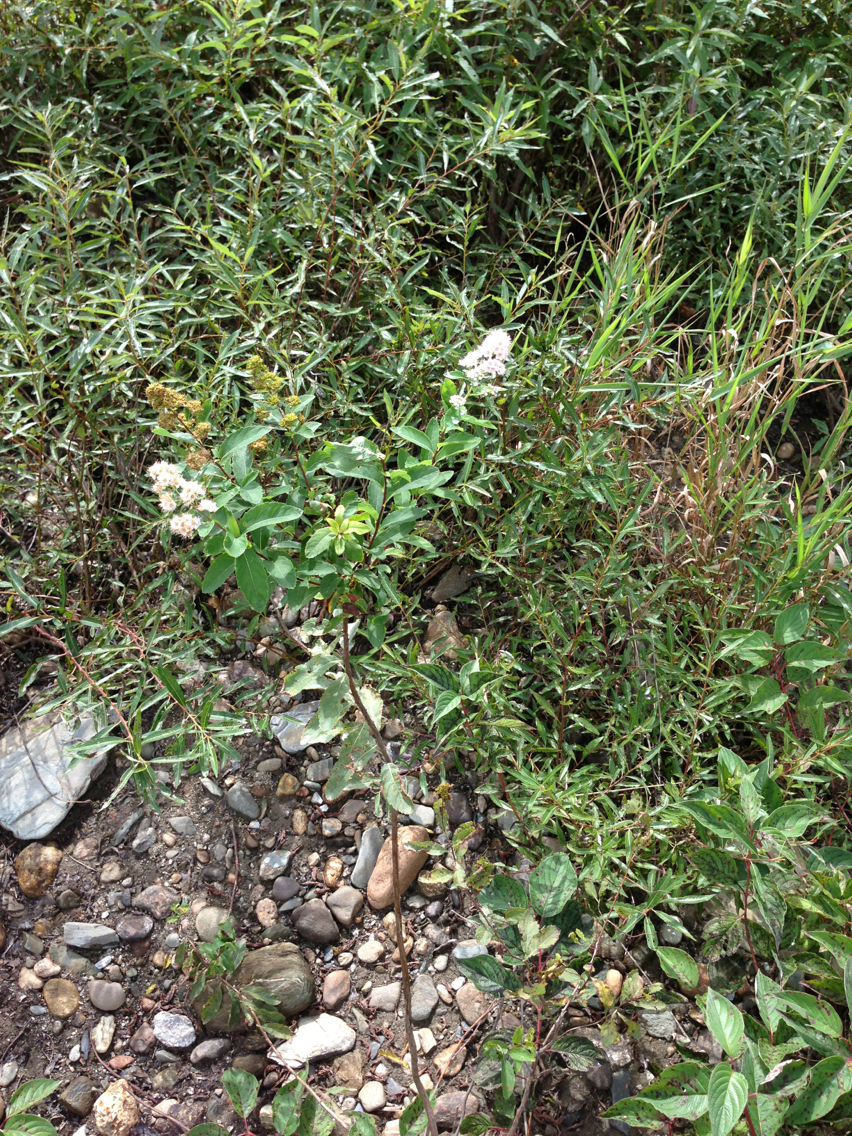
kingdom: Plantae
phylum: Tracheophyta
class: Magnoliopsida
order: Rosales
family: Rosaceae
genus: Spiraea
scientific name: Spiraea alba
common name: Pale bridewort
